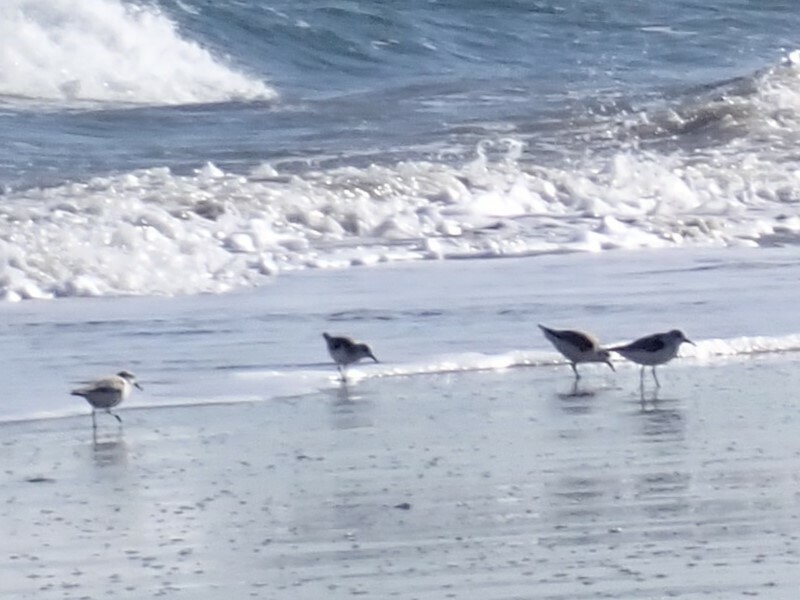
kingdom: Animalia
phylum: Chordata
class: Aves
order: Charadriiformes
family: Scolopacidae
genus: Calidris
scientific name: Calidris alba
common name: Sanderling
